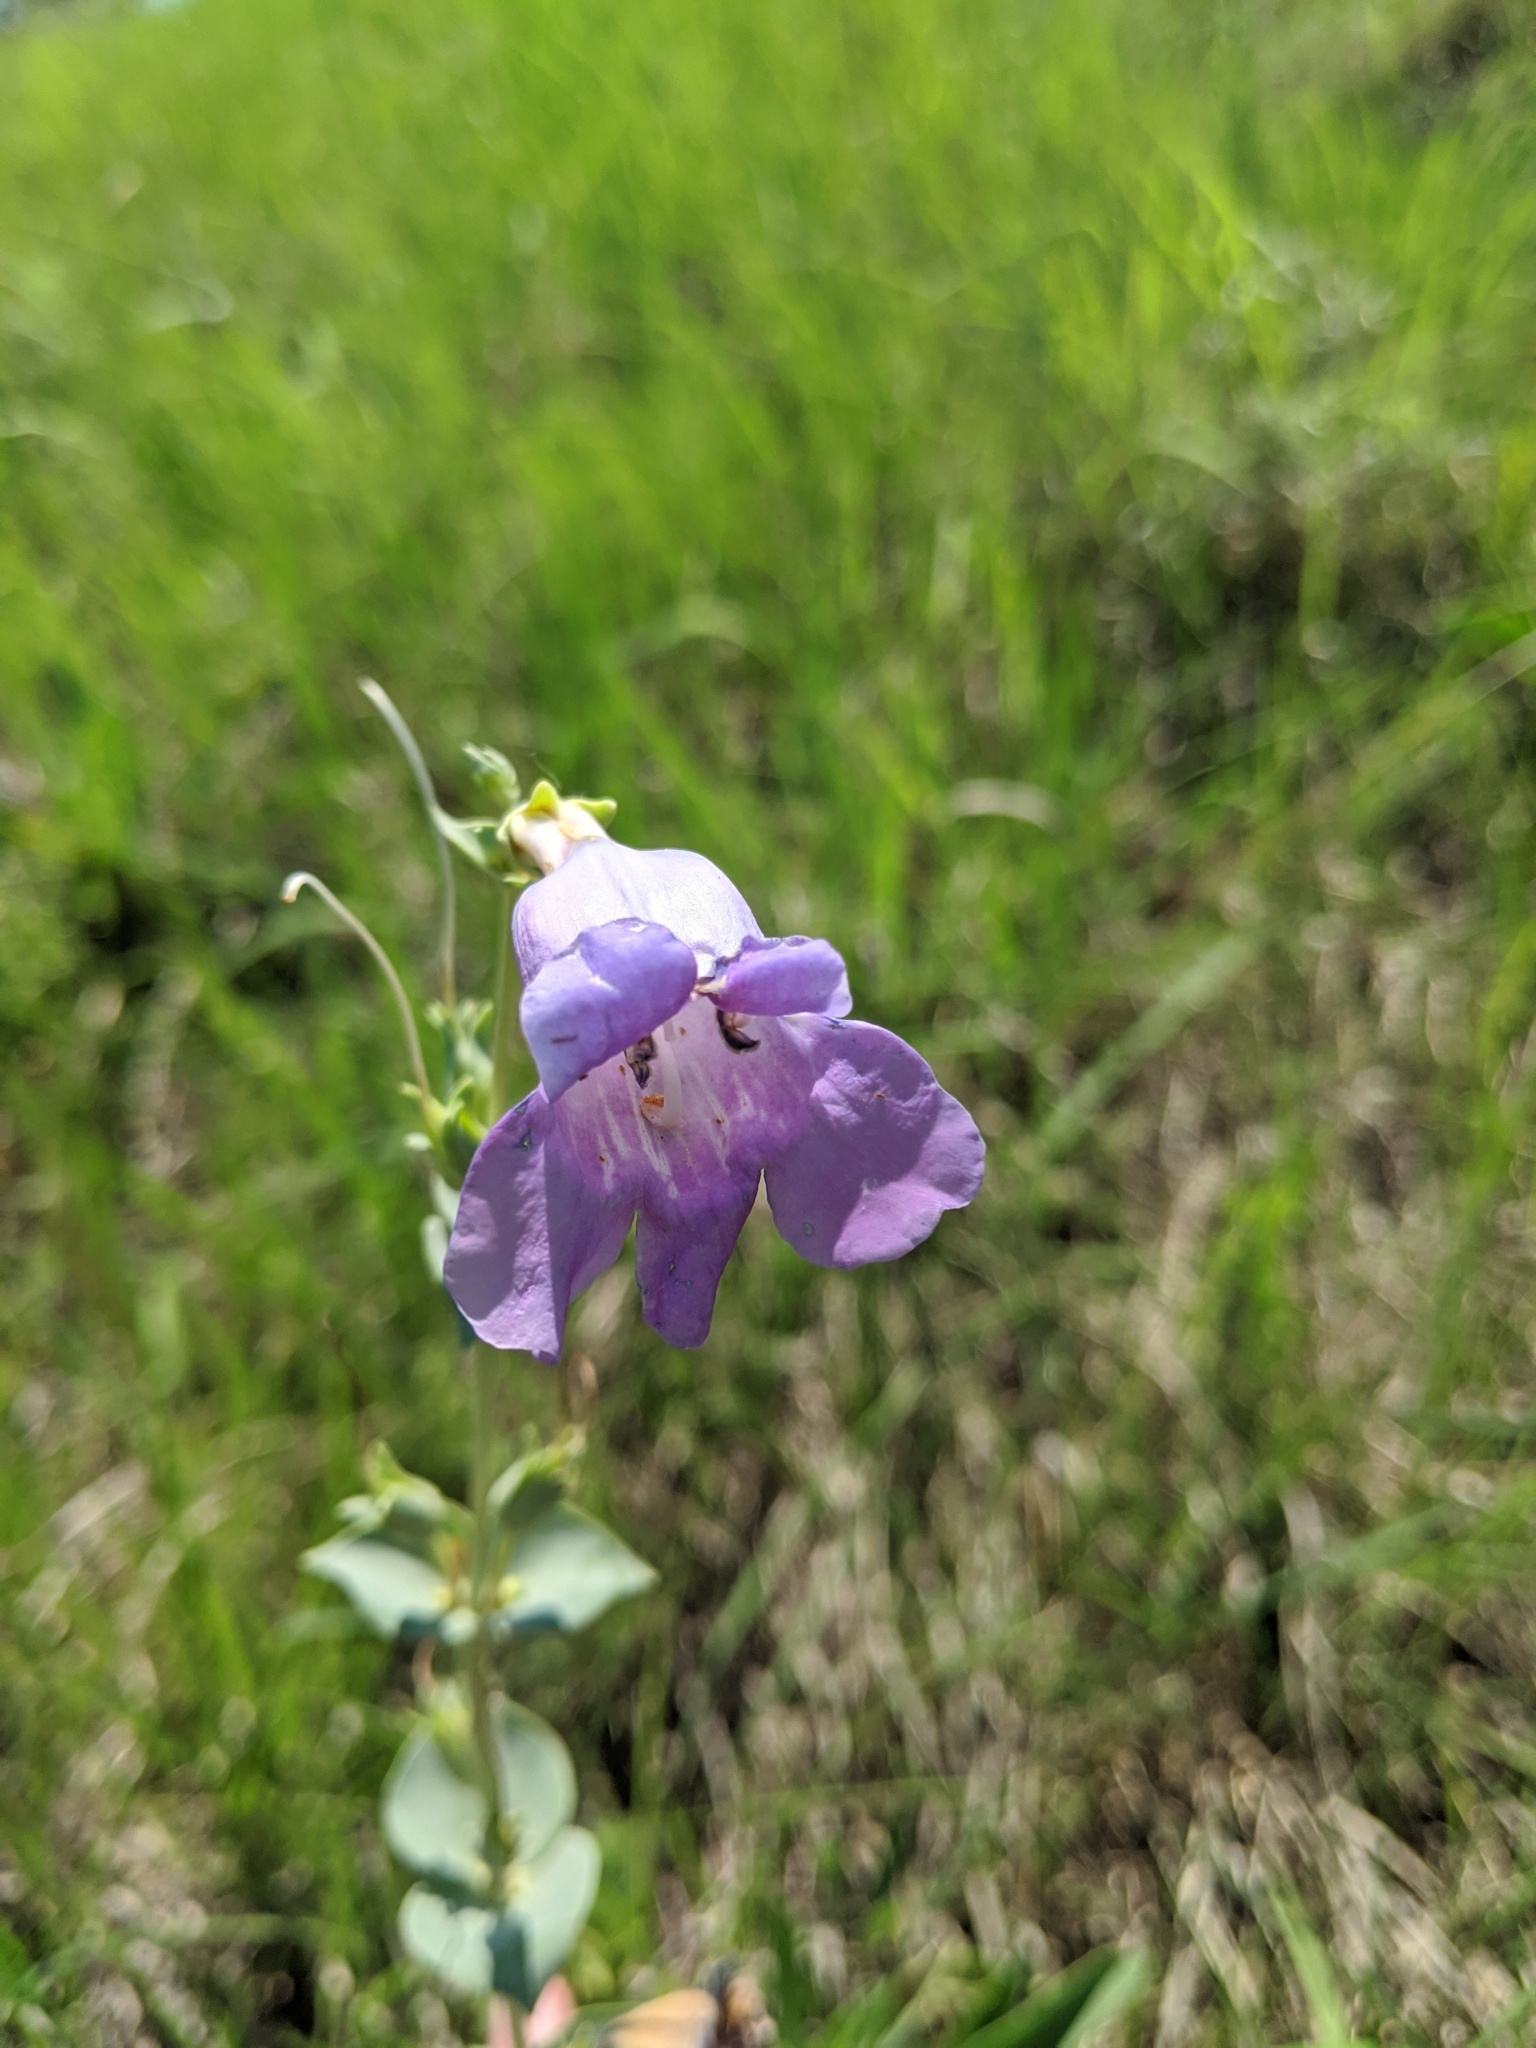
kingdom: Plantae
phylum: Tracheophyta
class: Magnoliopsida
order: Lamiales
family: Plantaginaceae
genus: Penstemon
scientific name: Penstemon
